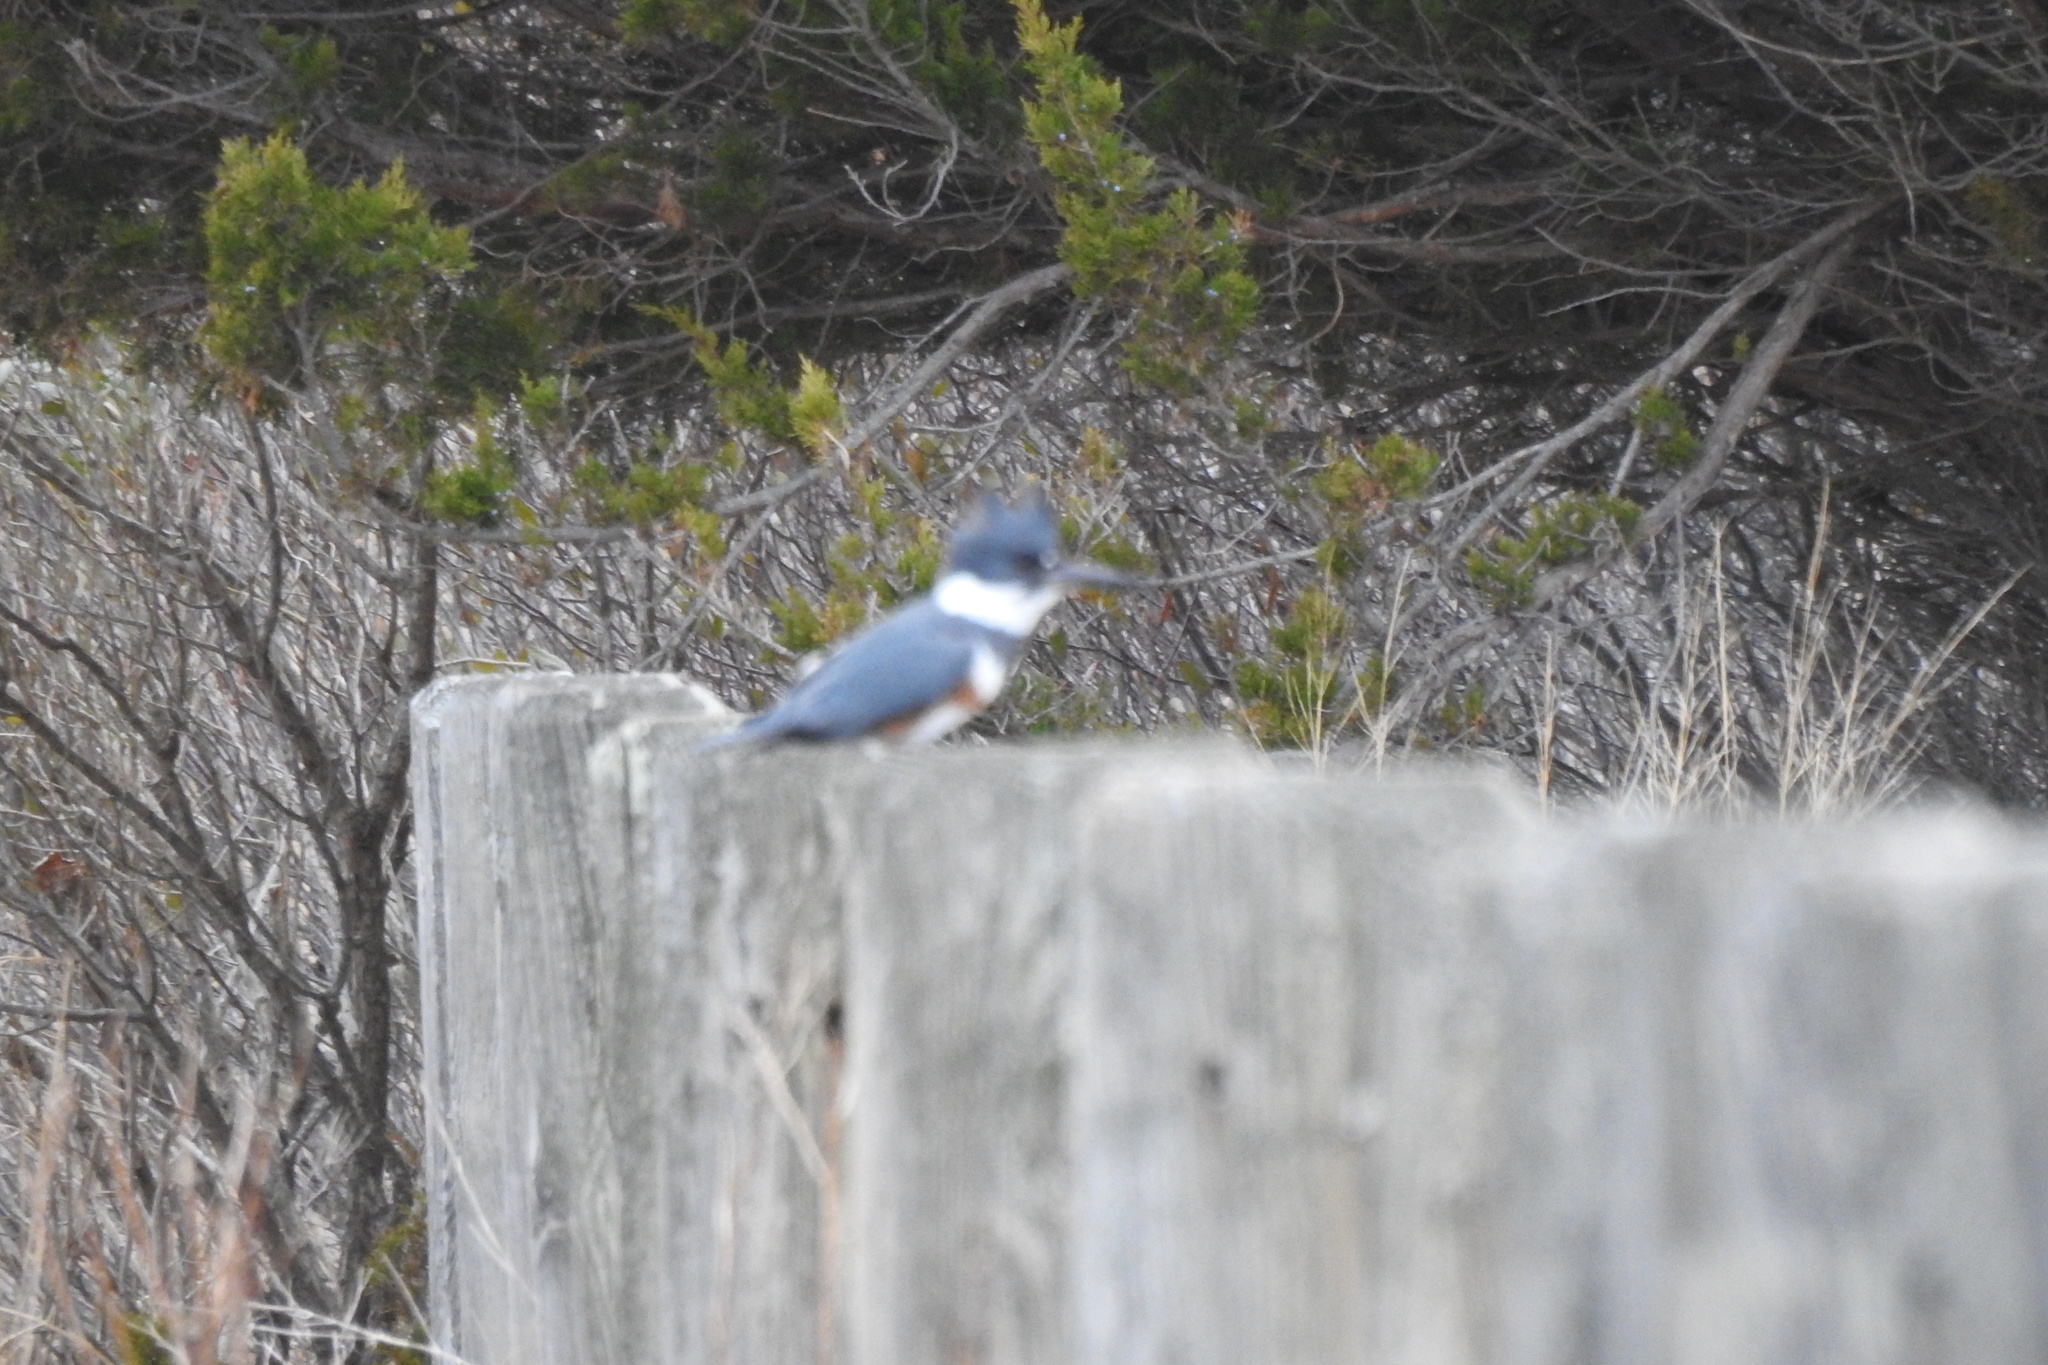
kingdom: Animalia
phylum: Chordata
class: Aves
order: Coraciiformes
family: Alcedinidae
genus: Megaceryle
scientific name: Megaceryle alcyon
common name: Belted kingfisher
